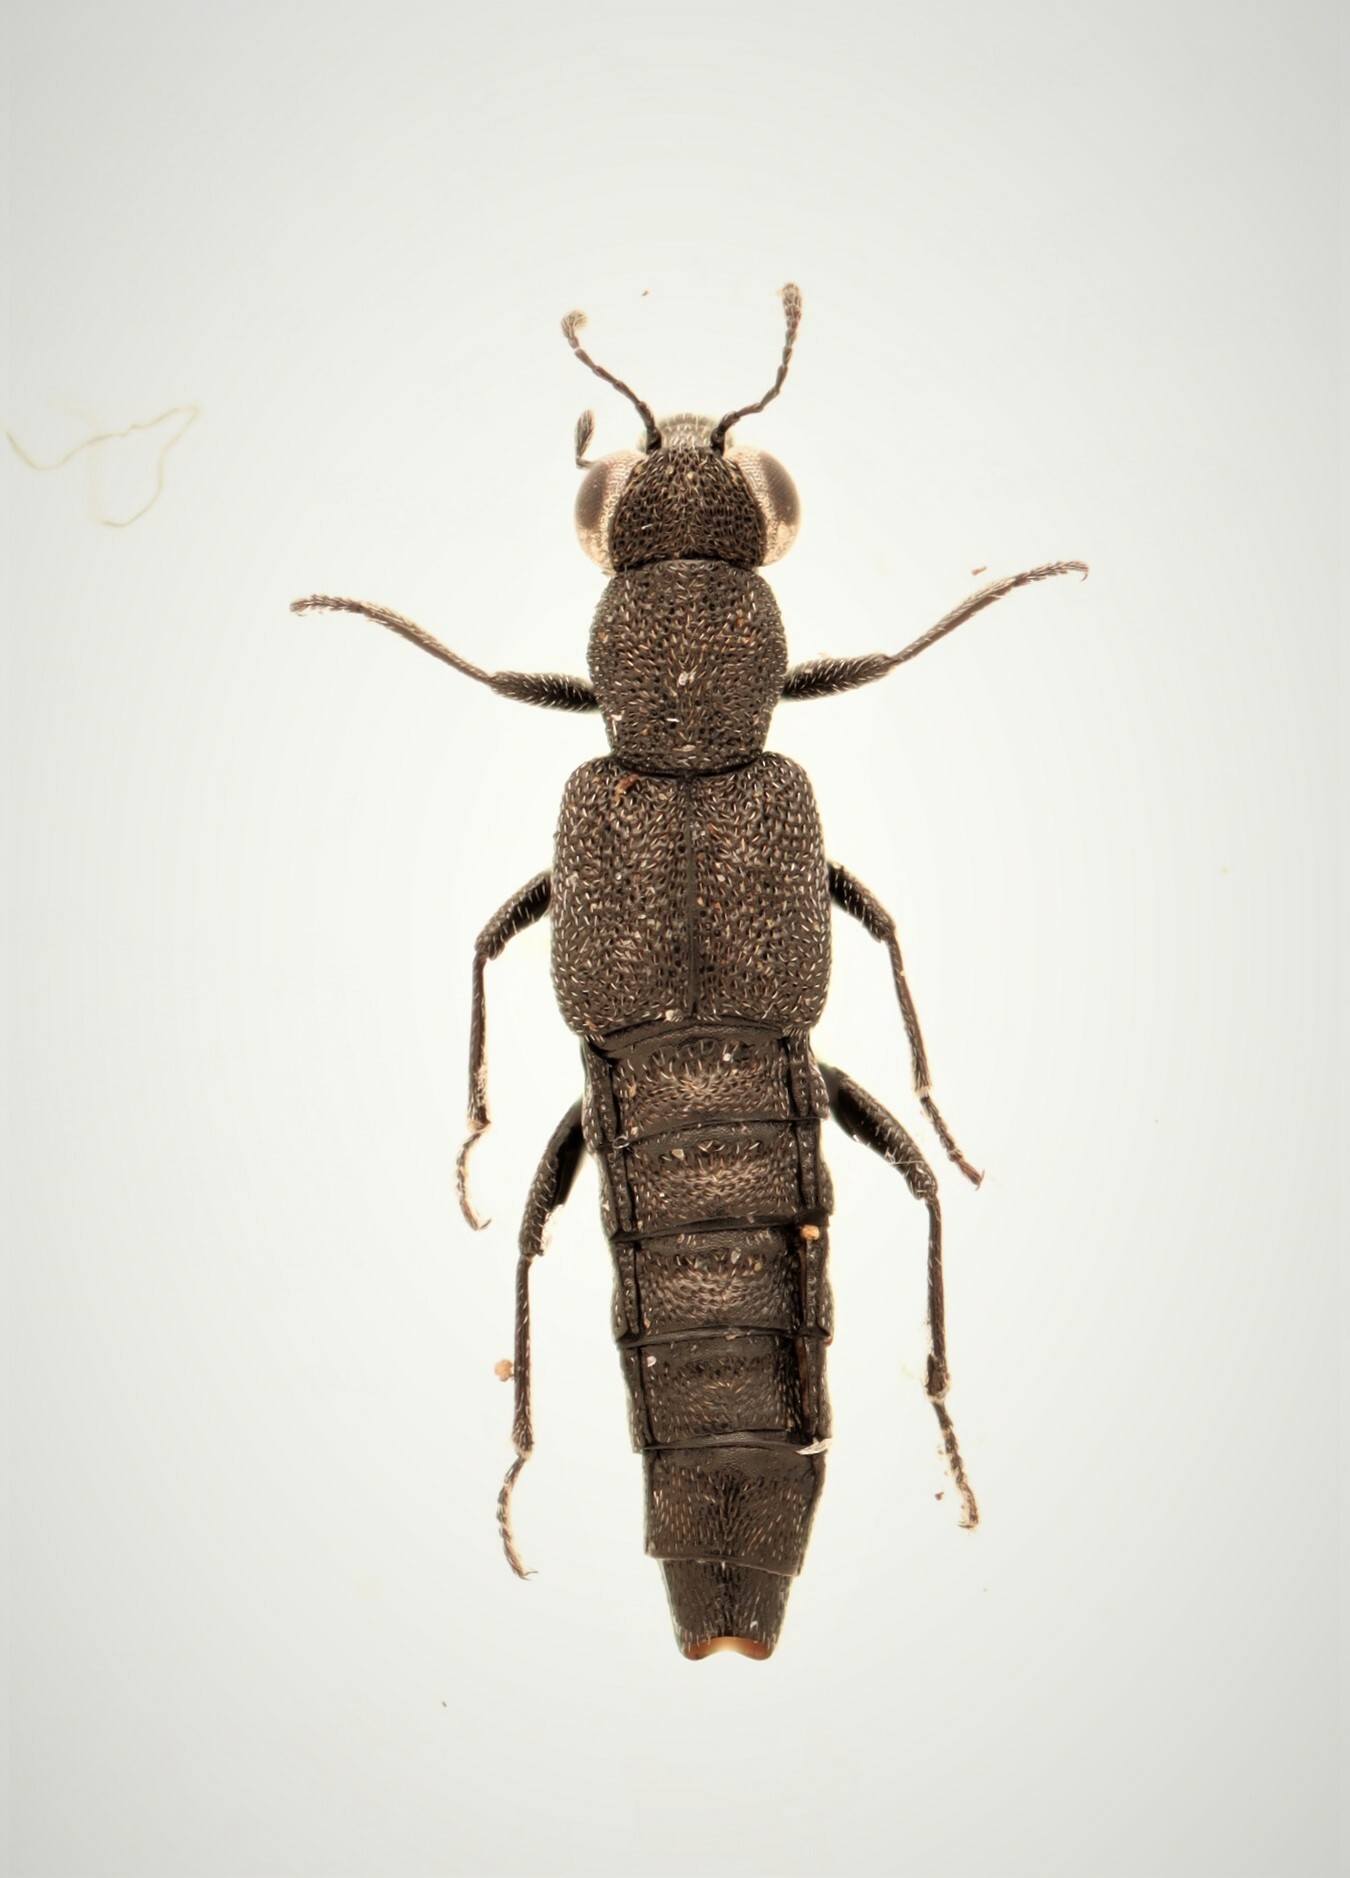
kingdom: Animalia
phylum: Arthropoda
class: Insecta
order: Coleoptera
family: Staphylinidae
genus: Stenus
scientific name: Stenus egenus
